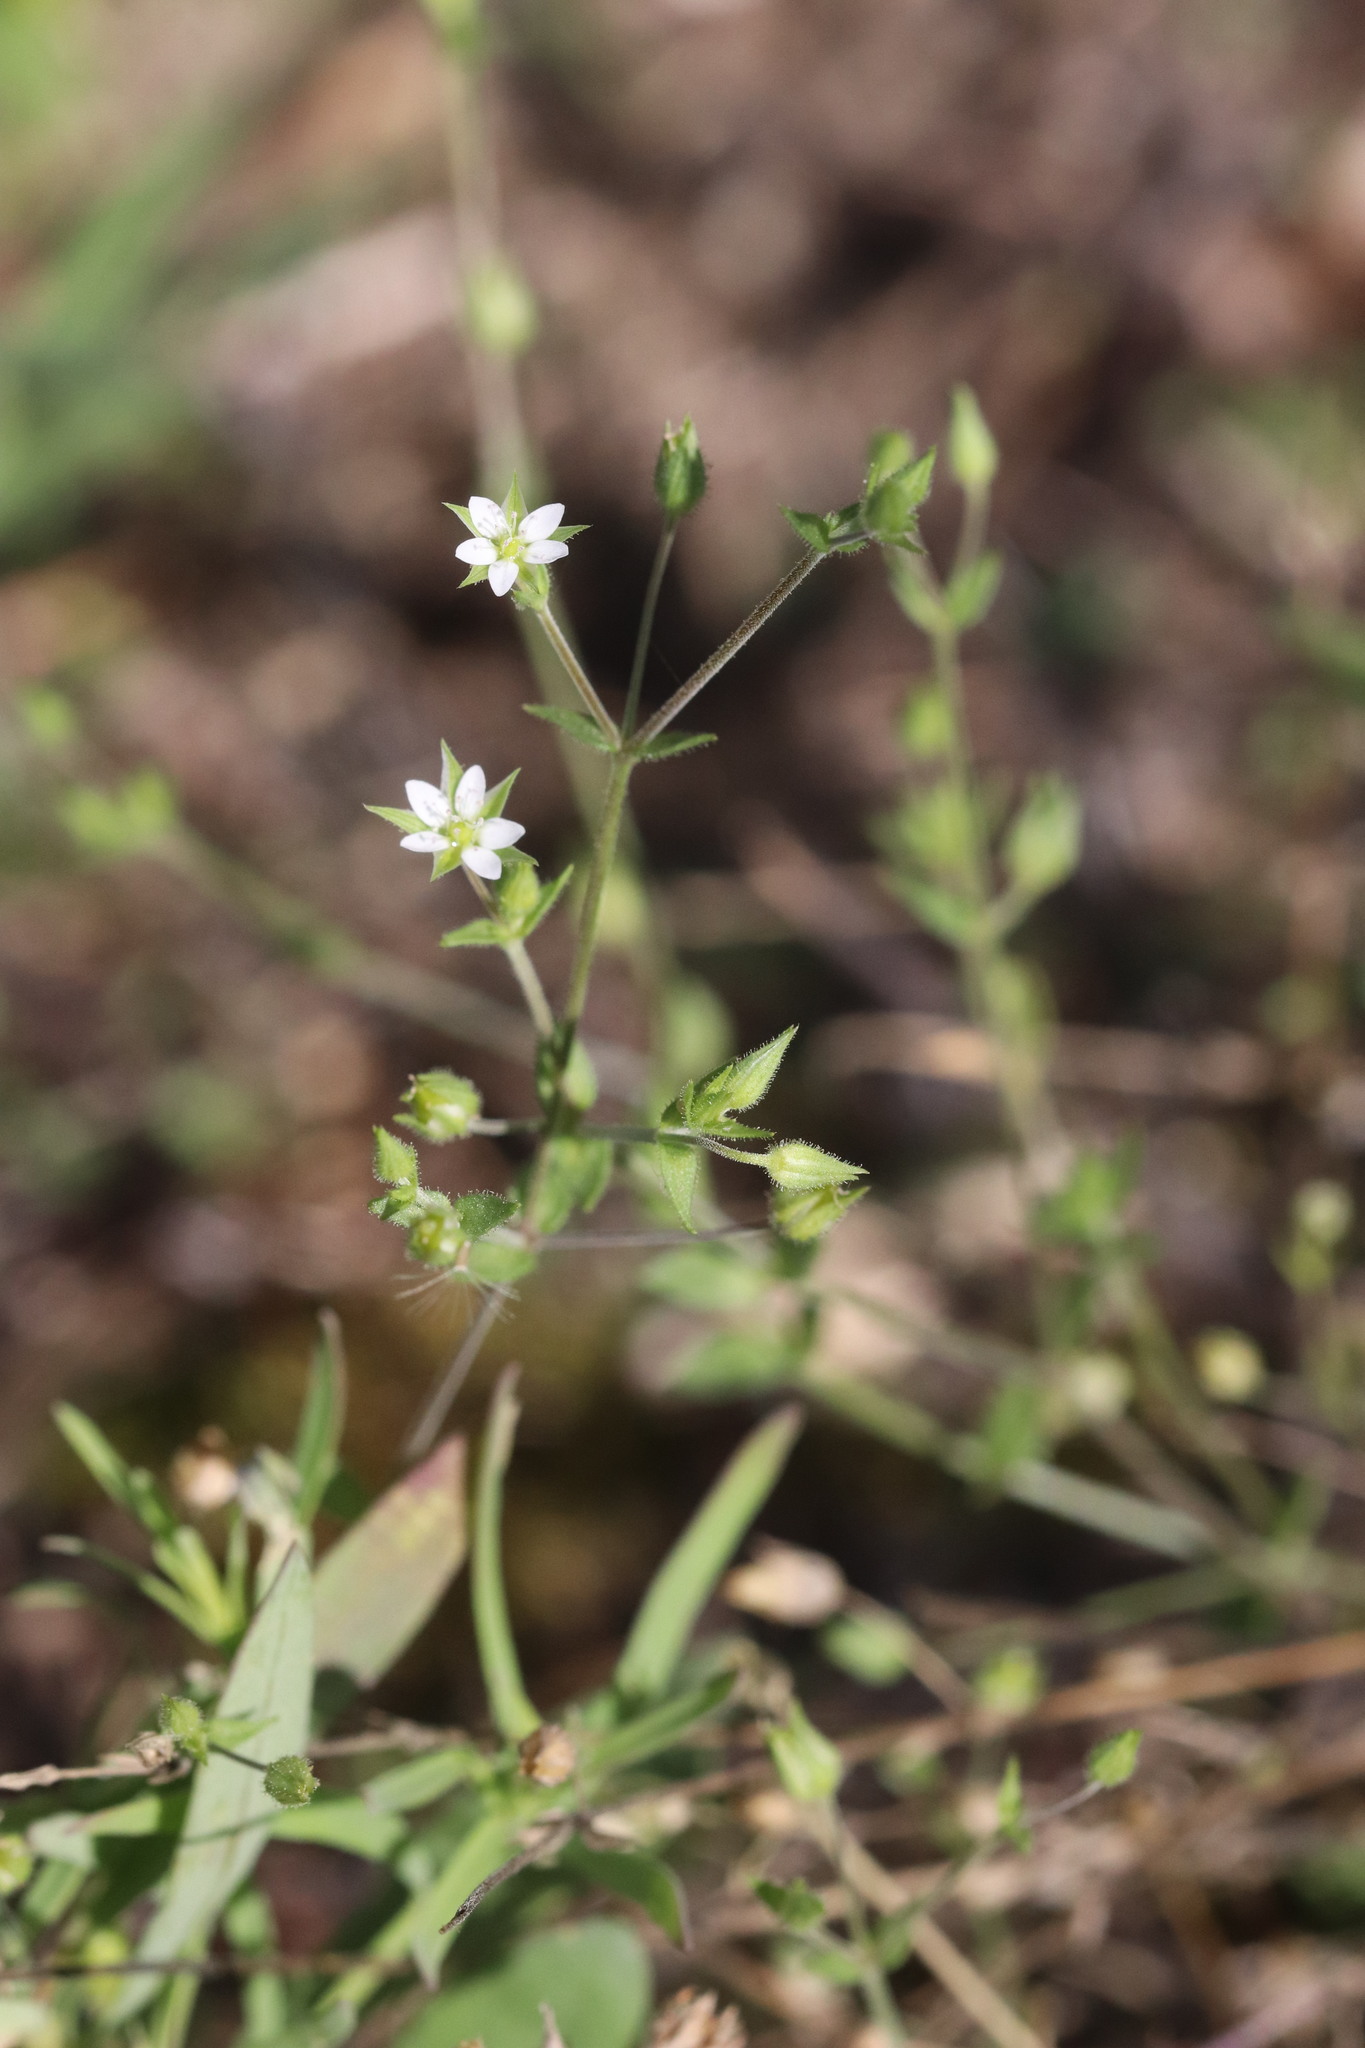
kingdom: Plantae
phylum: Tracheophyta
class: Magnoliopsida
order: Caryophyllales
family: Caryophyllaceae
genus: Arenaria
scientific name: Arenaria serpyllifolia
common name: Thyme-leaved sandwort
